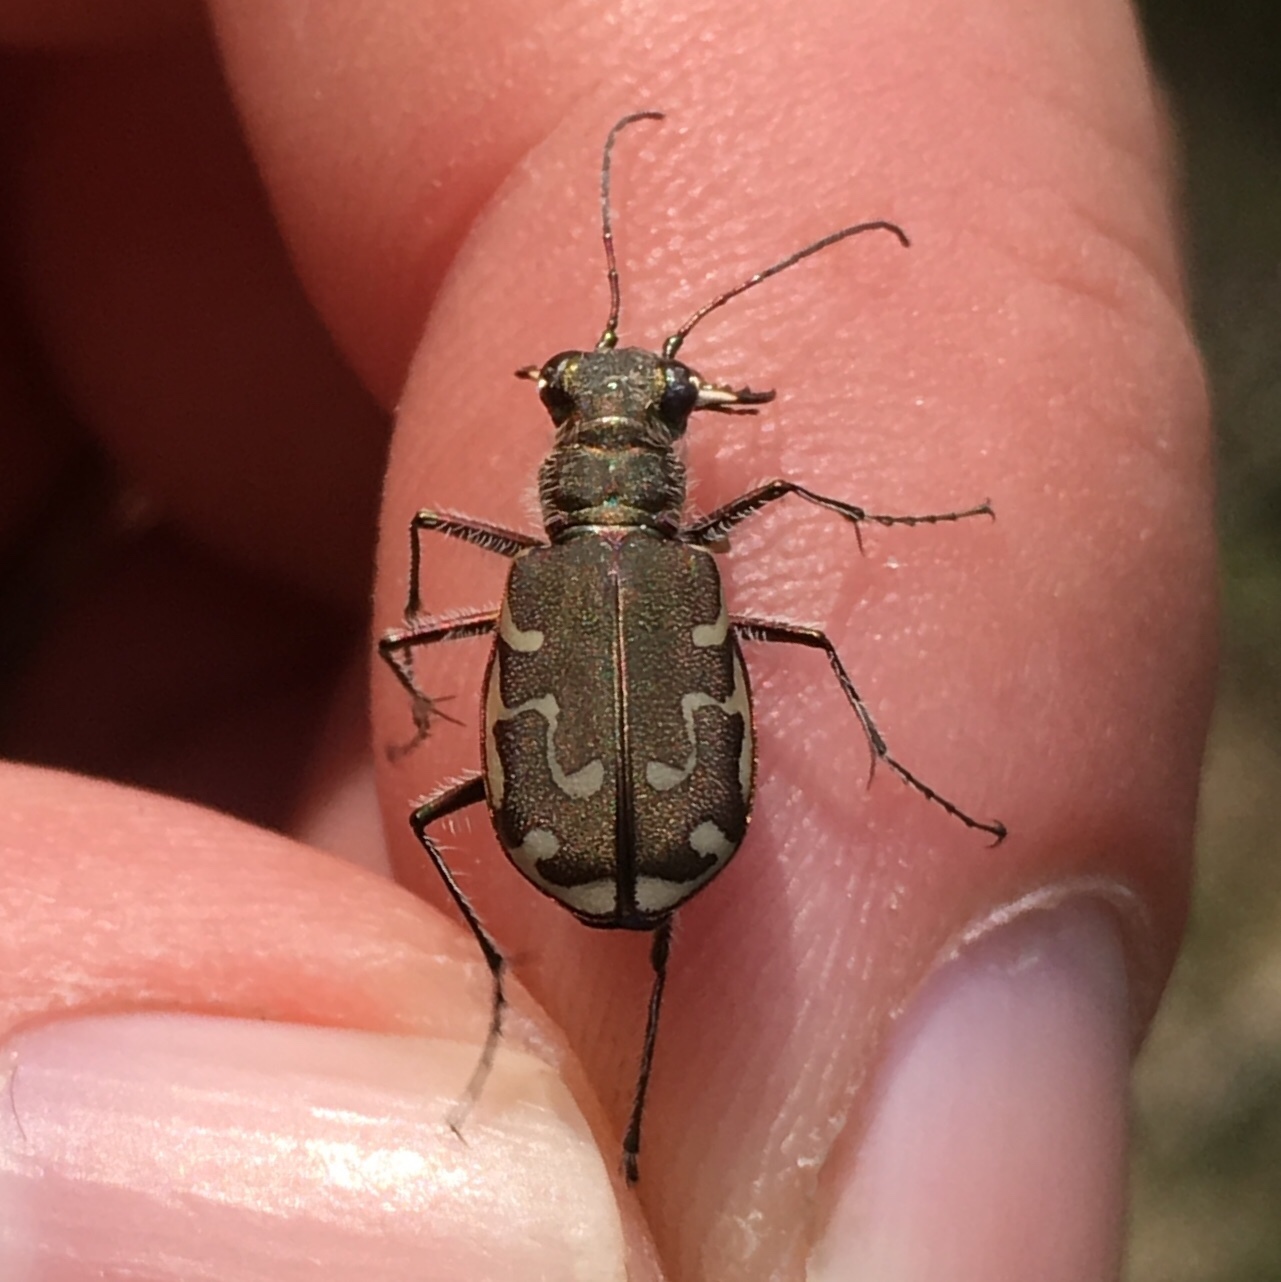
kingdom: Animalia
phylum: Arthropoda
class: Insecta
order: Coleoptera
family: Carabidae
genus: Cicindela
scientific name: Cicindela repanda
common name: Bronzed tiger beetle
